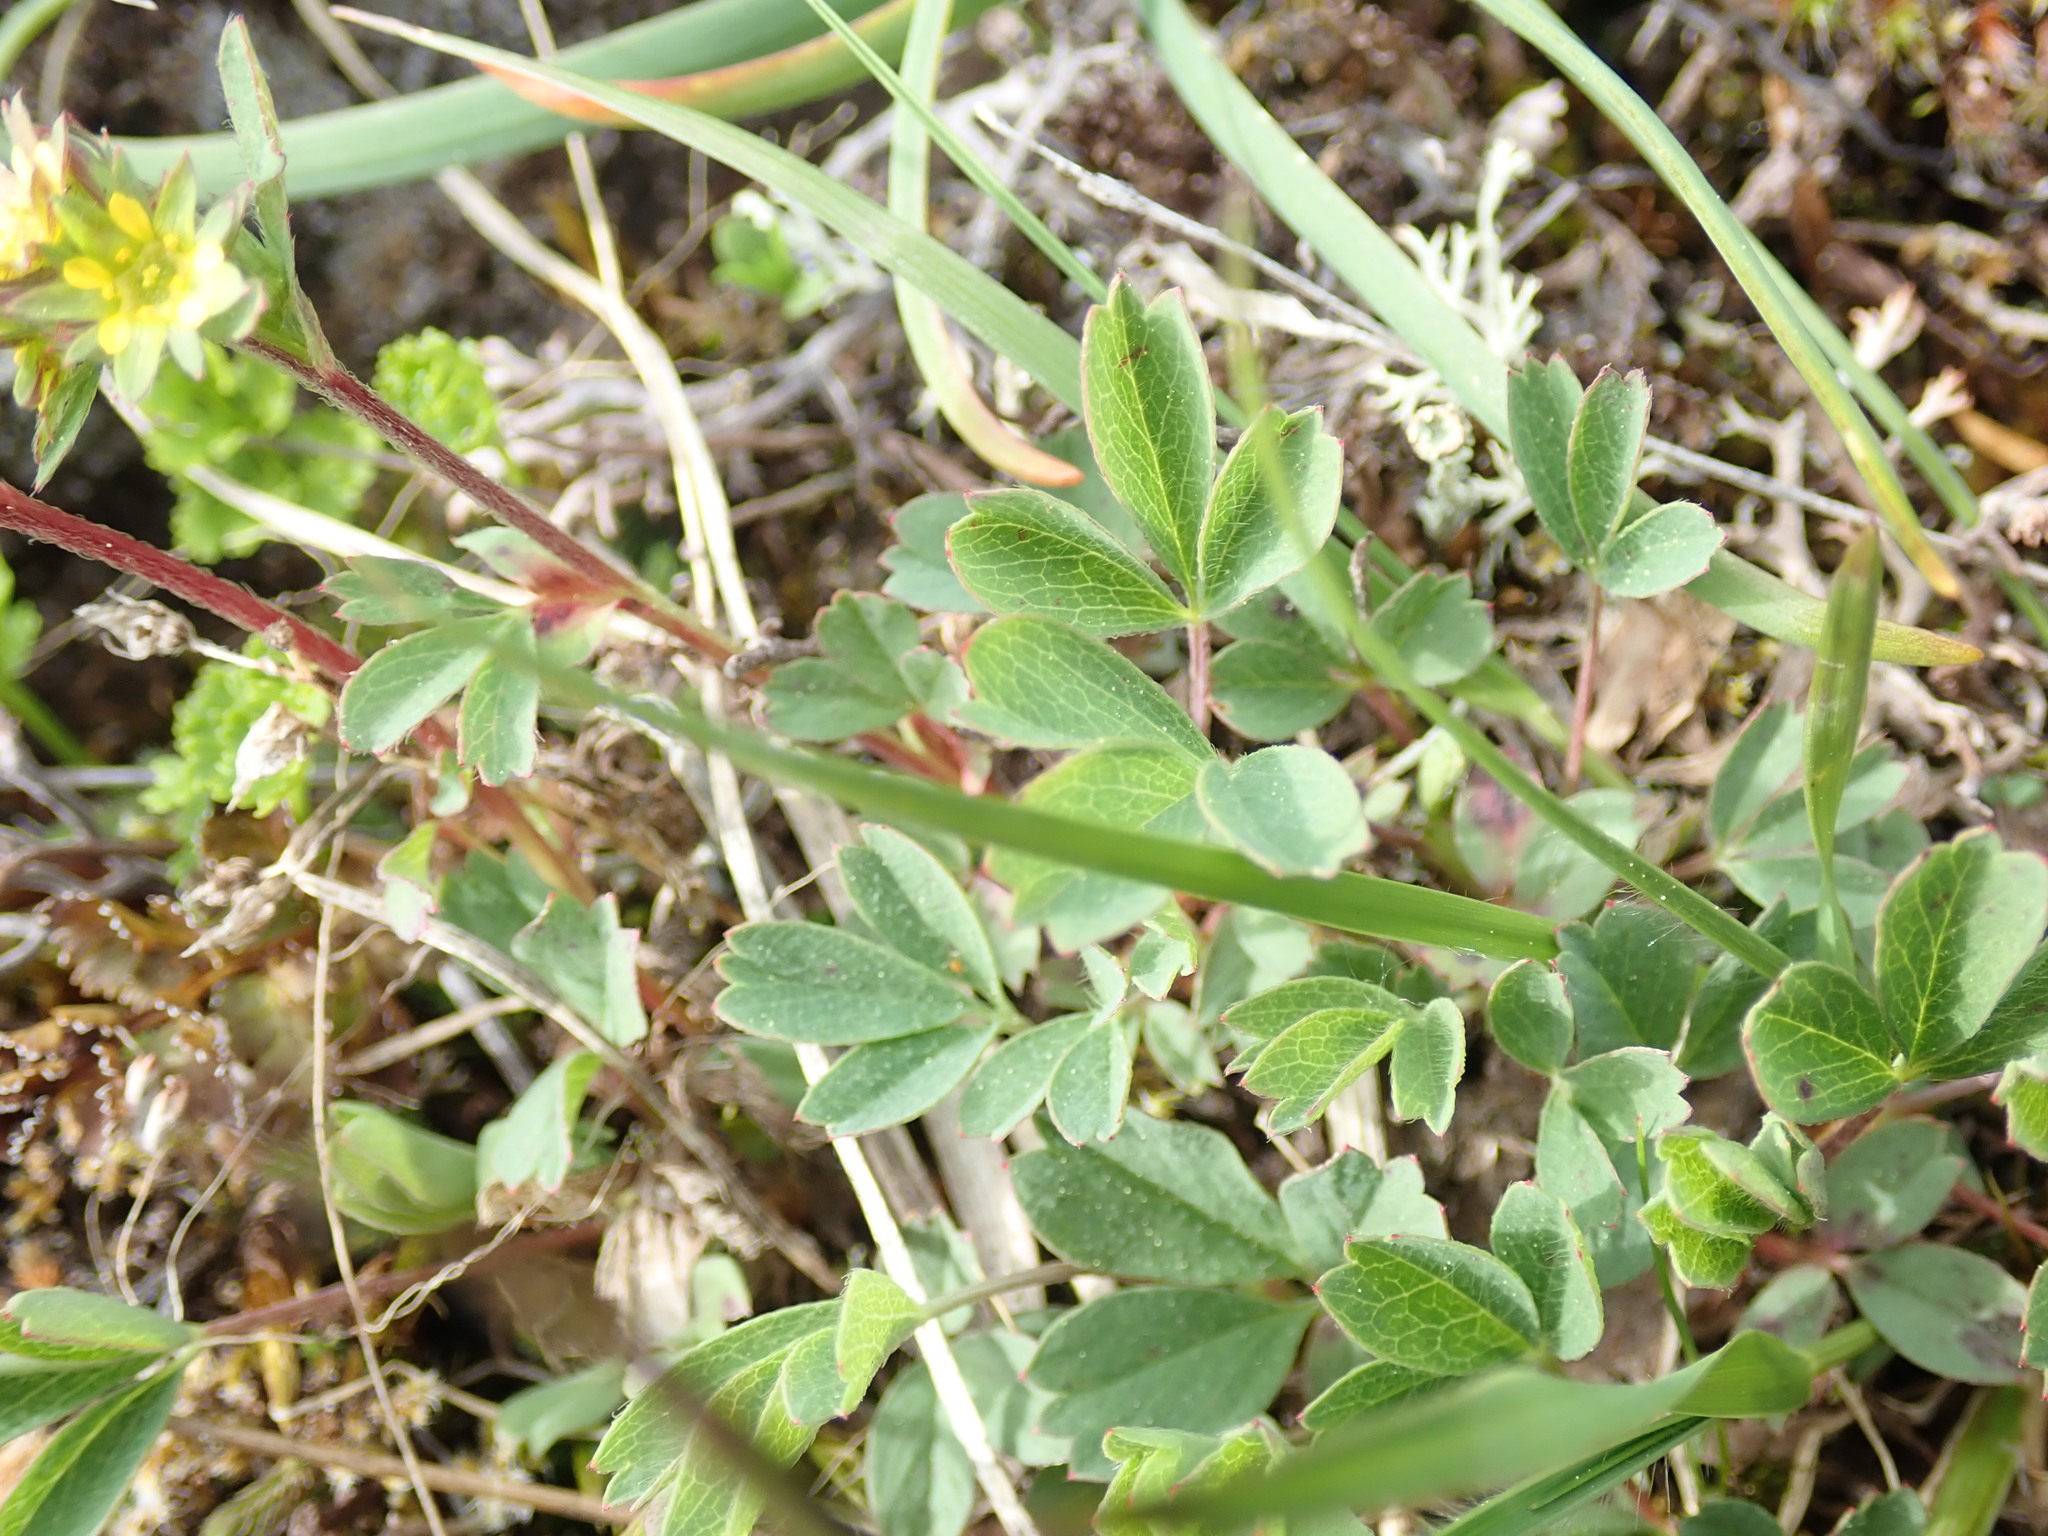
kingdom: Plantae
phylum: Tracheophyta
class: Magnoliopsida
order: Rosales
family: Rosaceae
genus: Sibbaldia
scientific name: Sibbaldia procumbens
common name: Creeping sibbaldia
